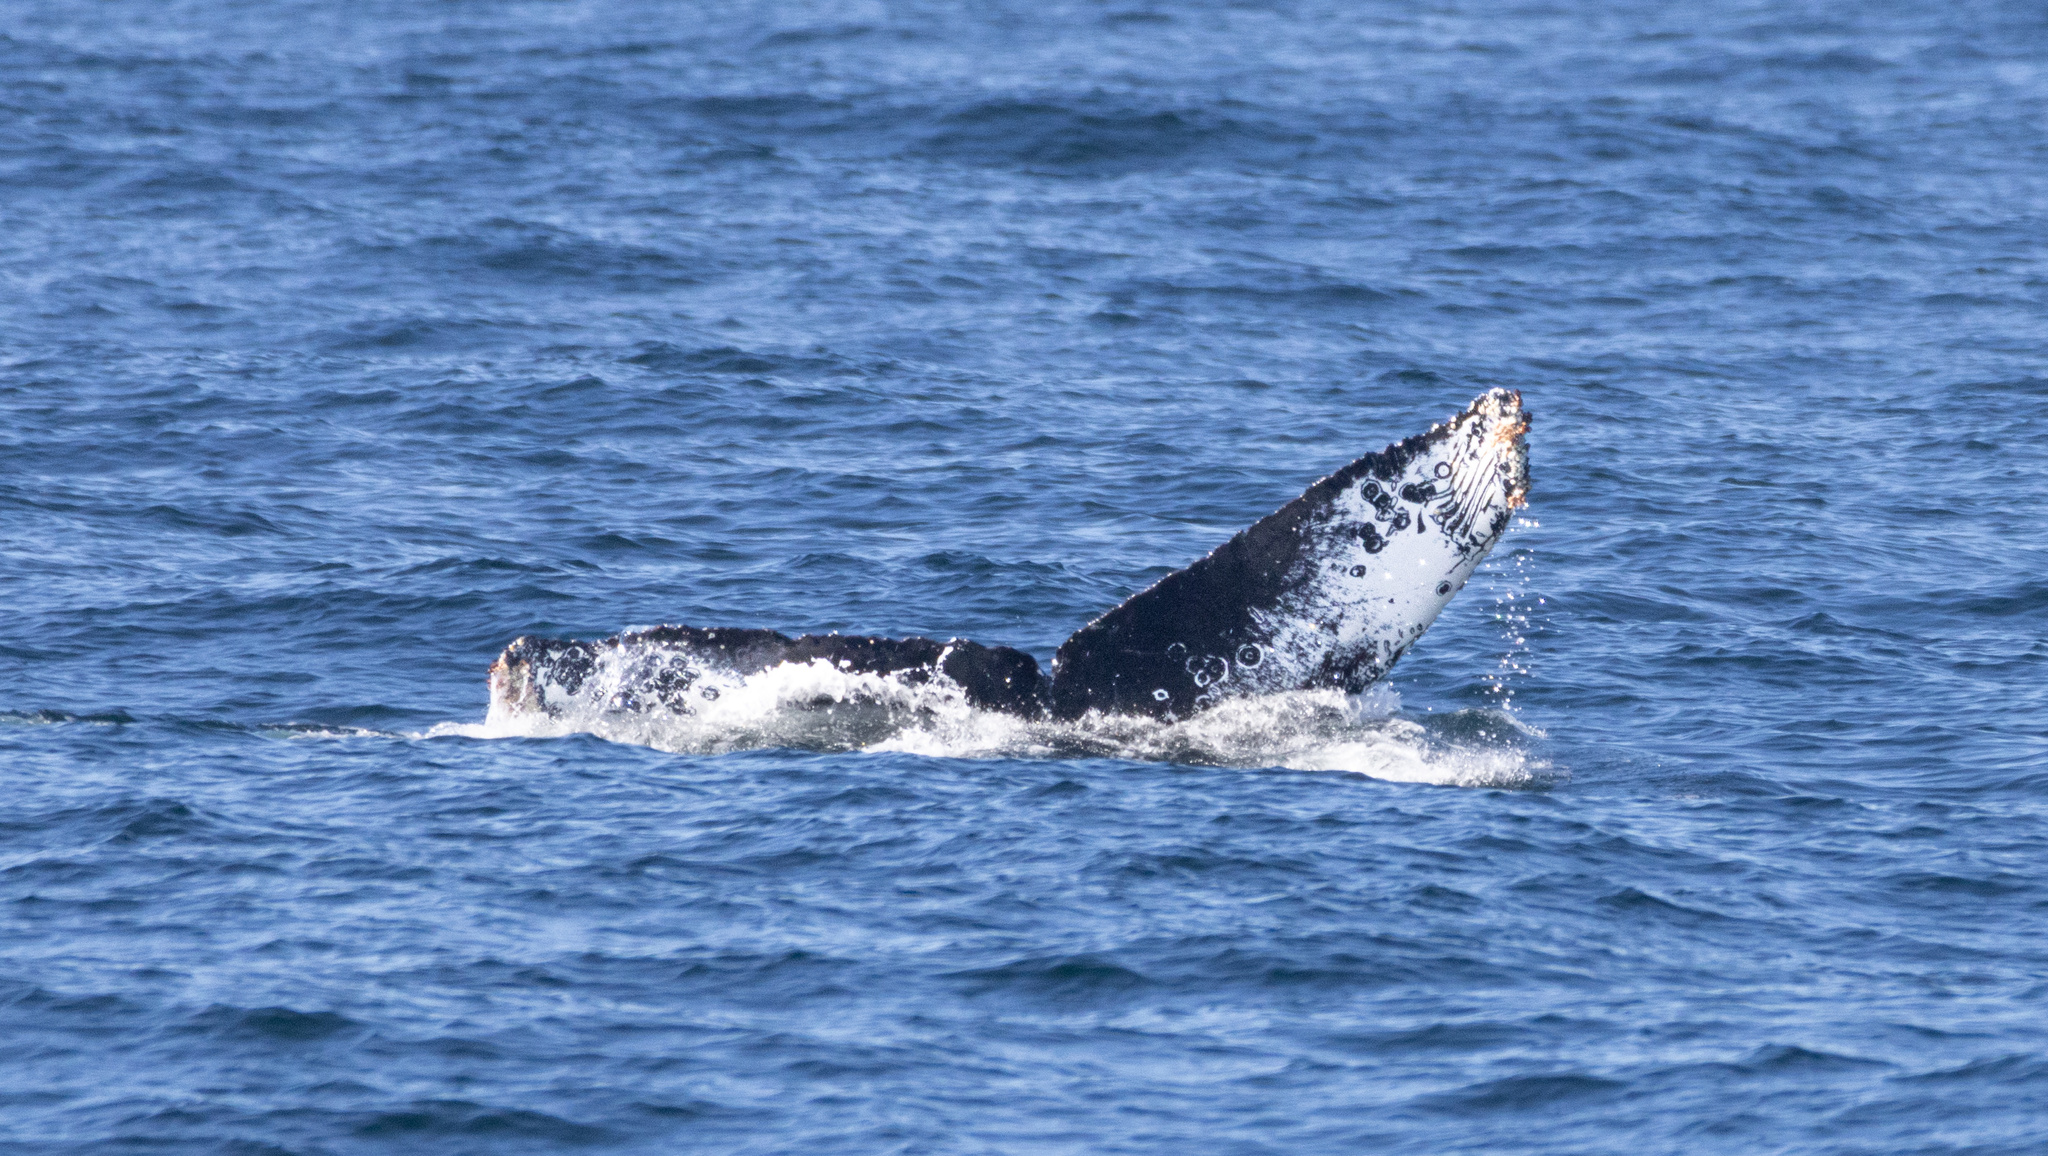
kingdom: Animalia
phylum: Chordata
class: Mammalia
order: Cetacea
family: Balaenopteridae
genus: Megaptera
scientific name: Megaptera novaeangliae
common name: Humpback whale
